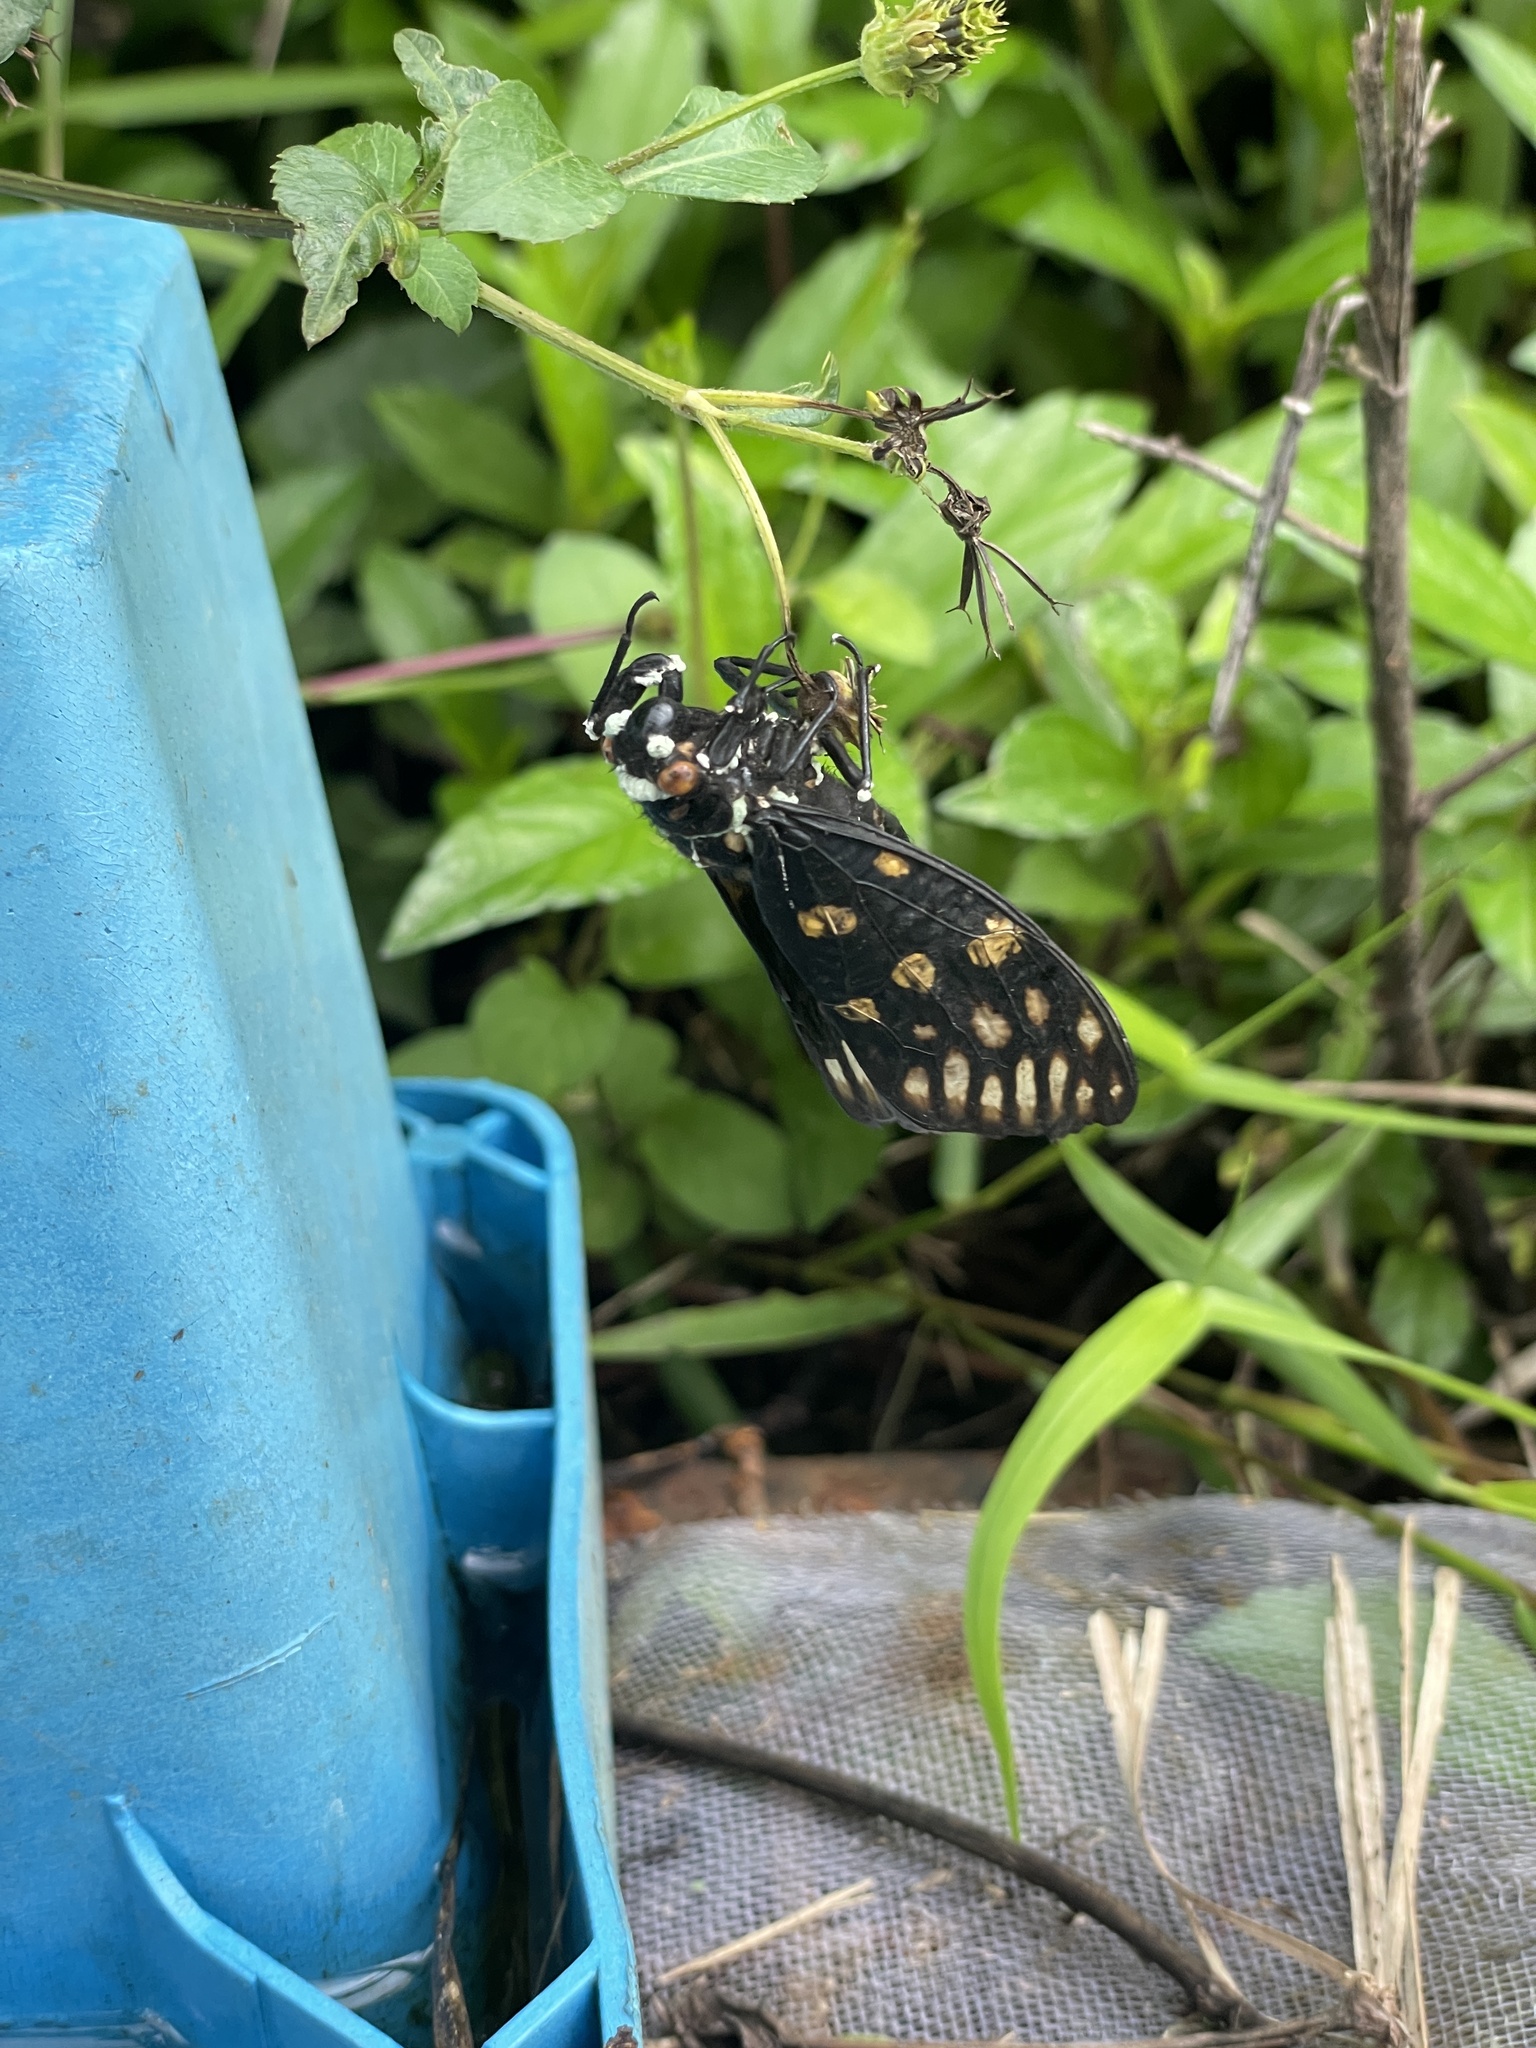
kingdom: Animalia
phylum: Arthropoda
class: Insecta
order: Hemiptera
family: Cicadidae
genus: Gaeana
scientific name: Gaeana maculata
